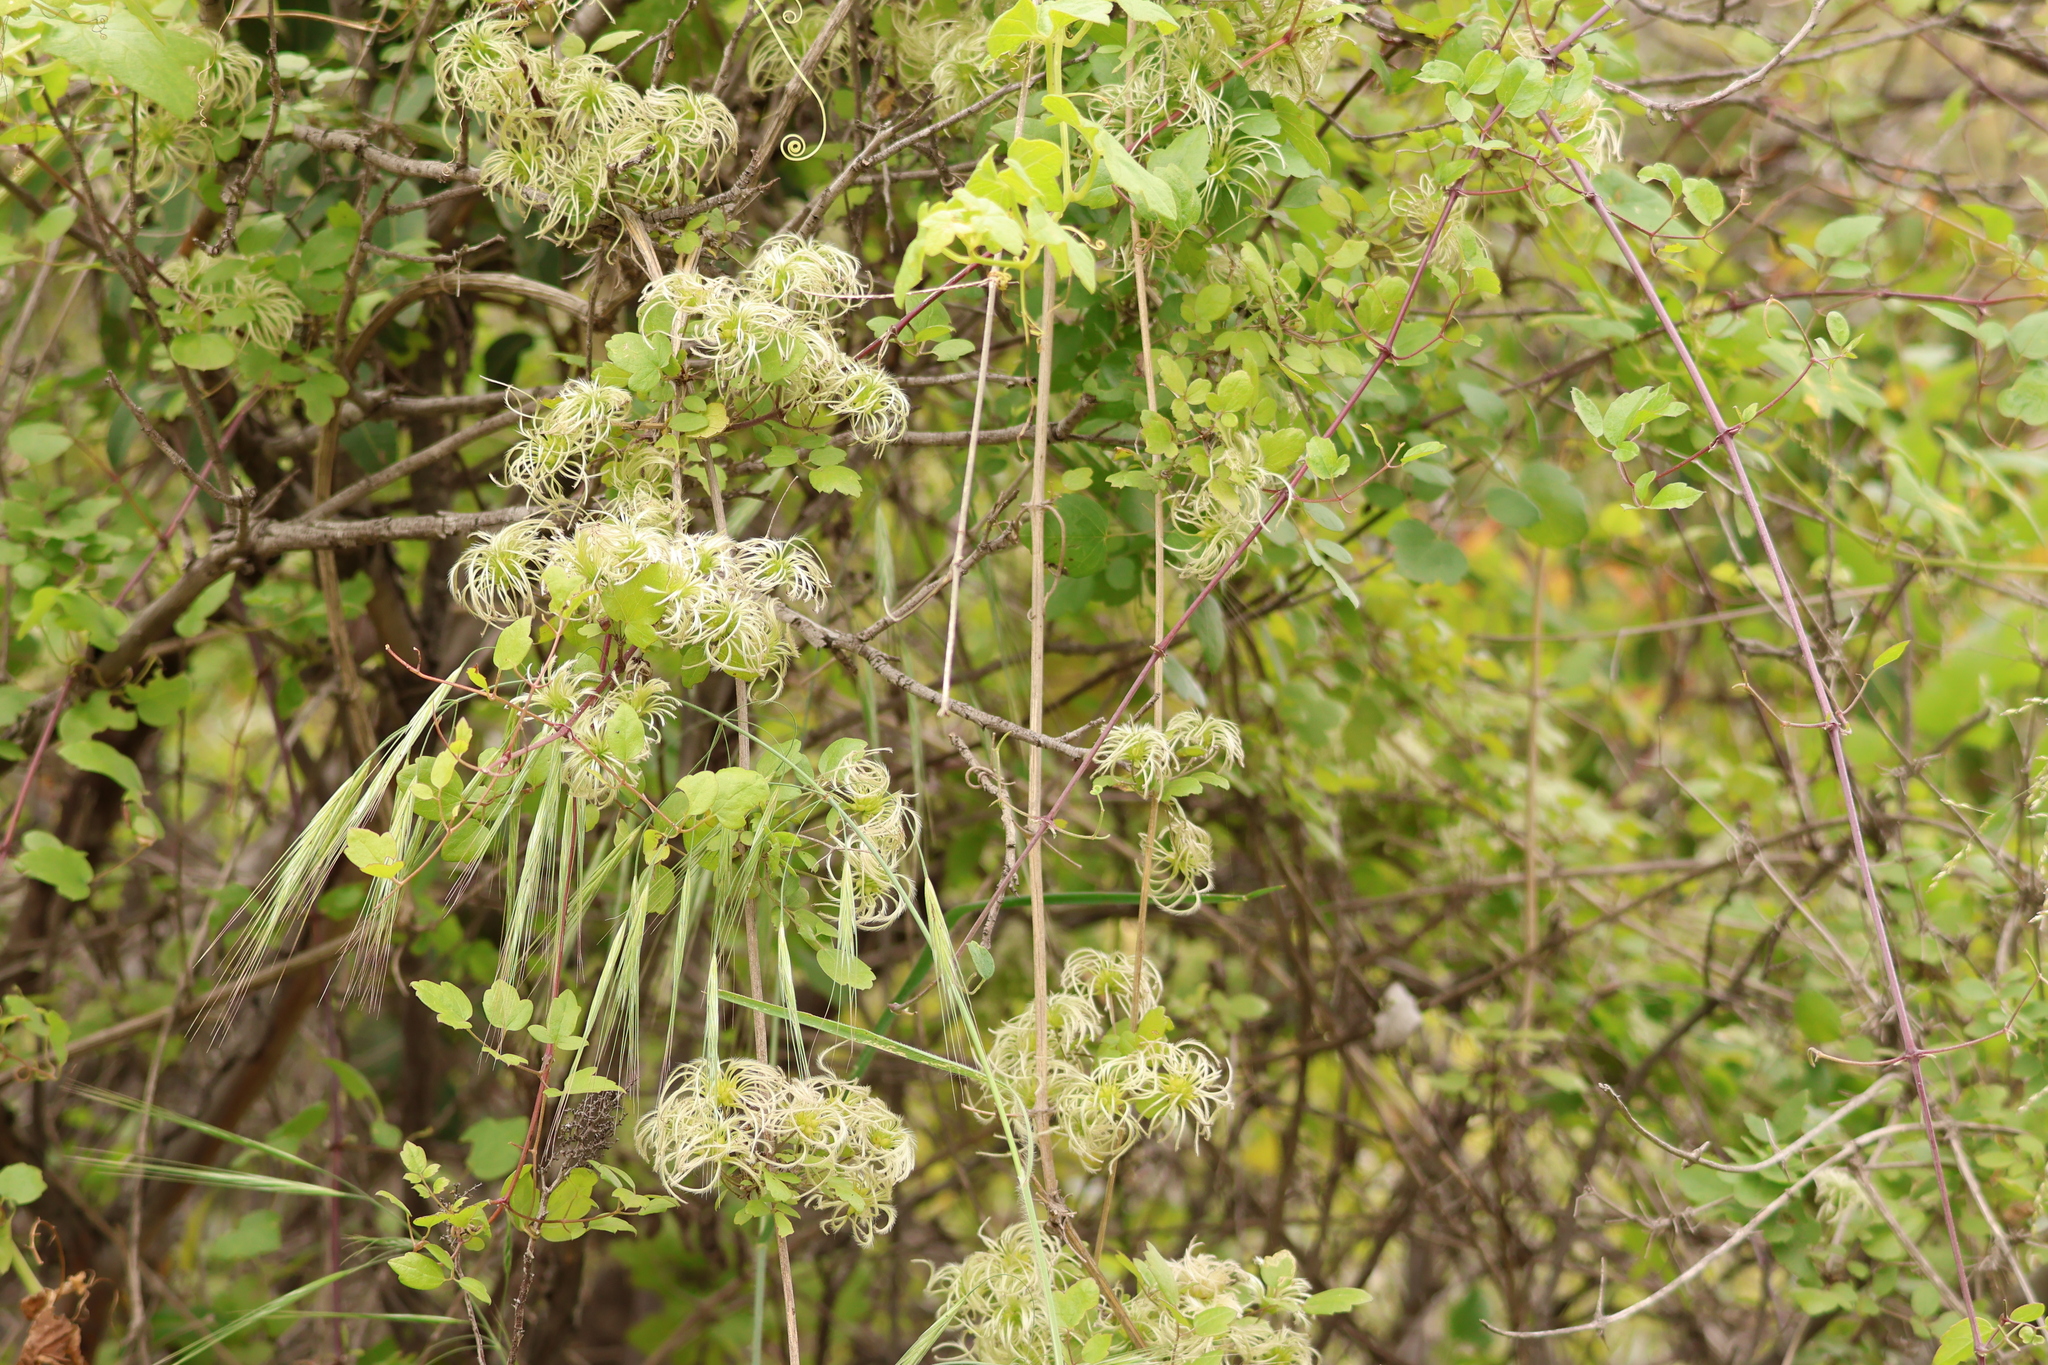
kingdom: Plantae
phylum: Tracheophyta
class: Magnoliopsida
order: Ranunculales
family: Ranunculaceae
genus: Clematis
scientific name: Clematis pauciflora
